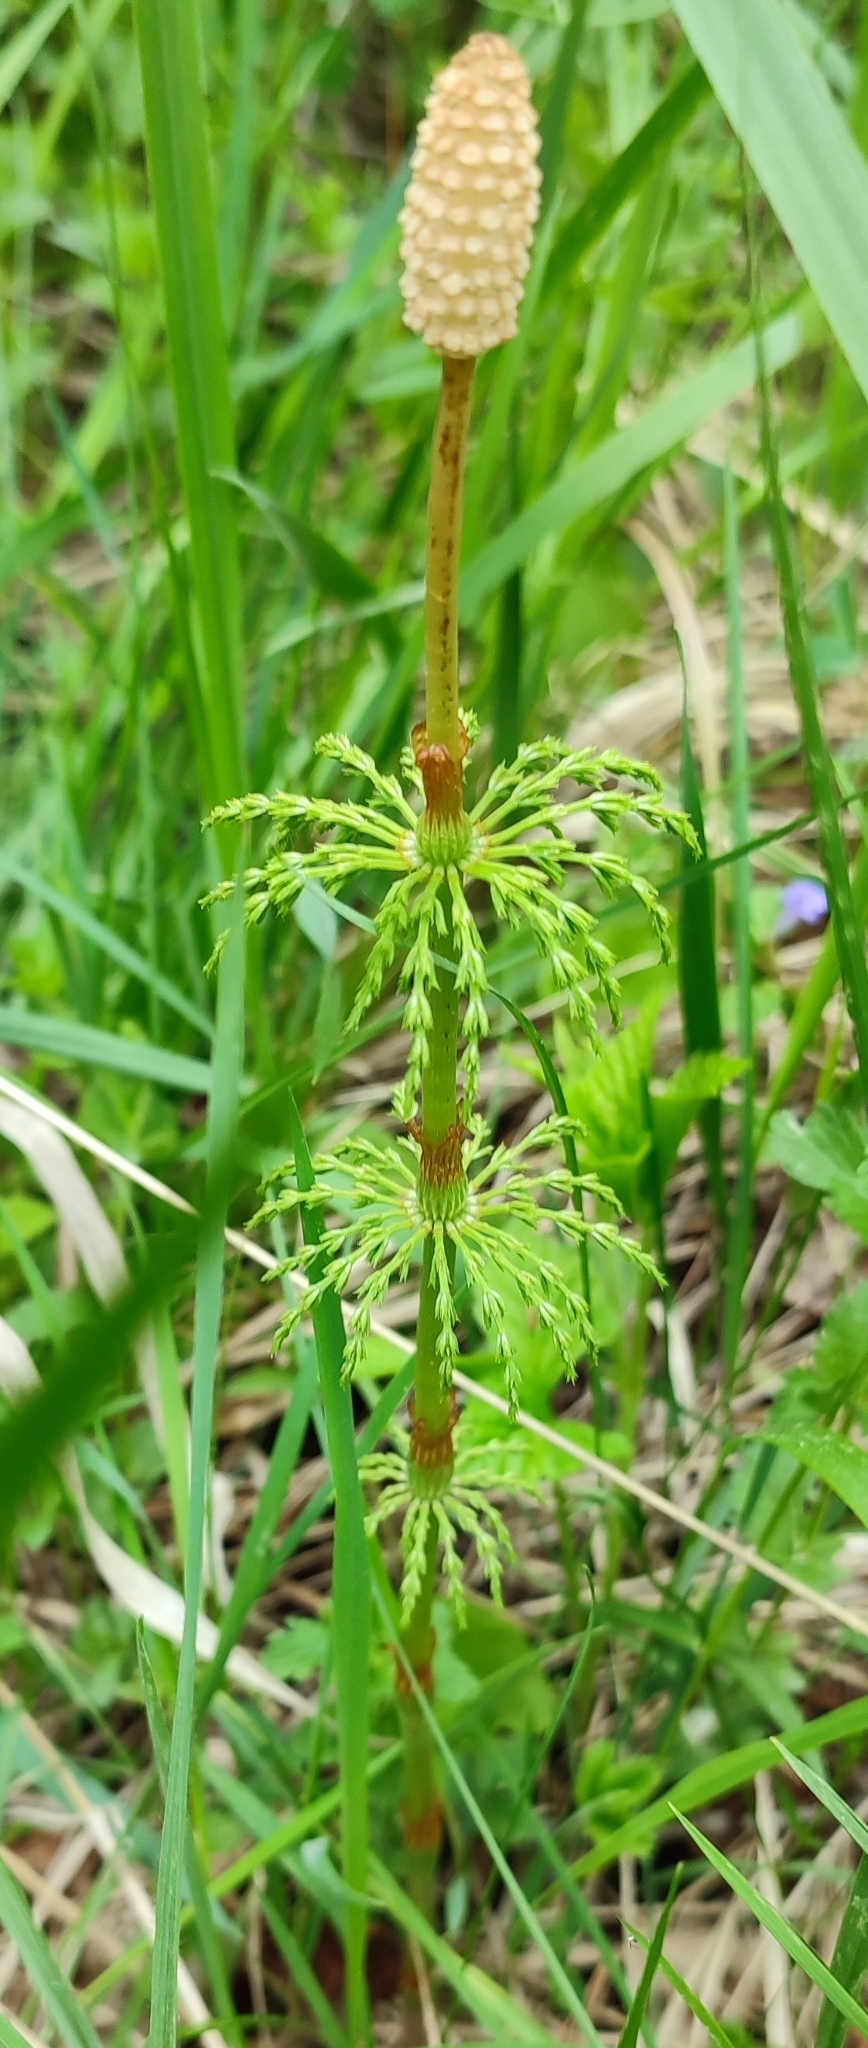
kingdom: Plantae
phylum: Tracheophyta
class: Polypodiopsida
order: Equisetales
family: Equisetaceae
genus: Equisetum
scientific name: Equisetum sylvaticum
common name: Wood horsetail
